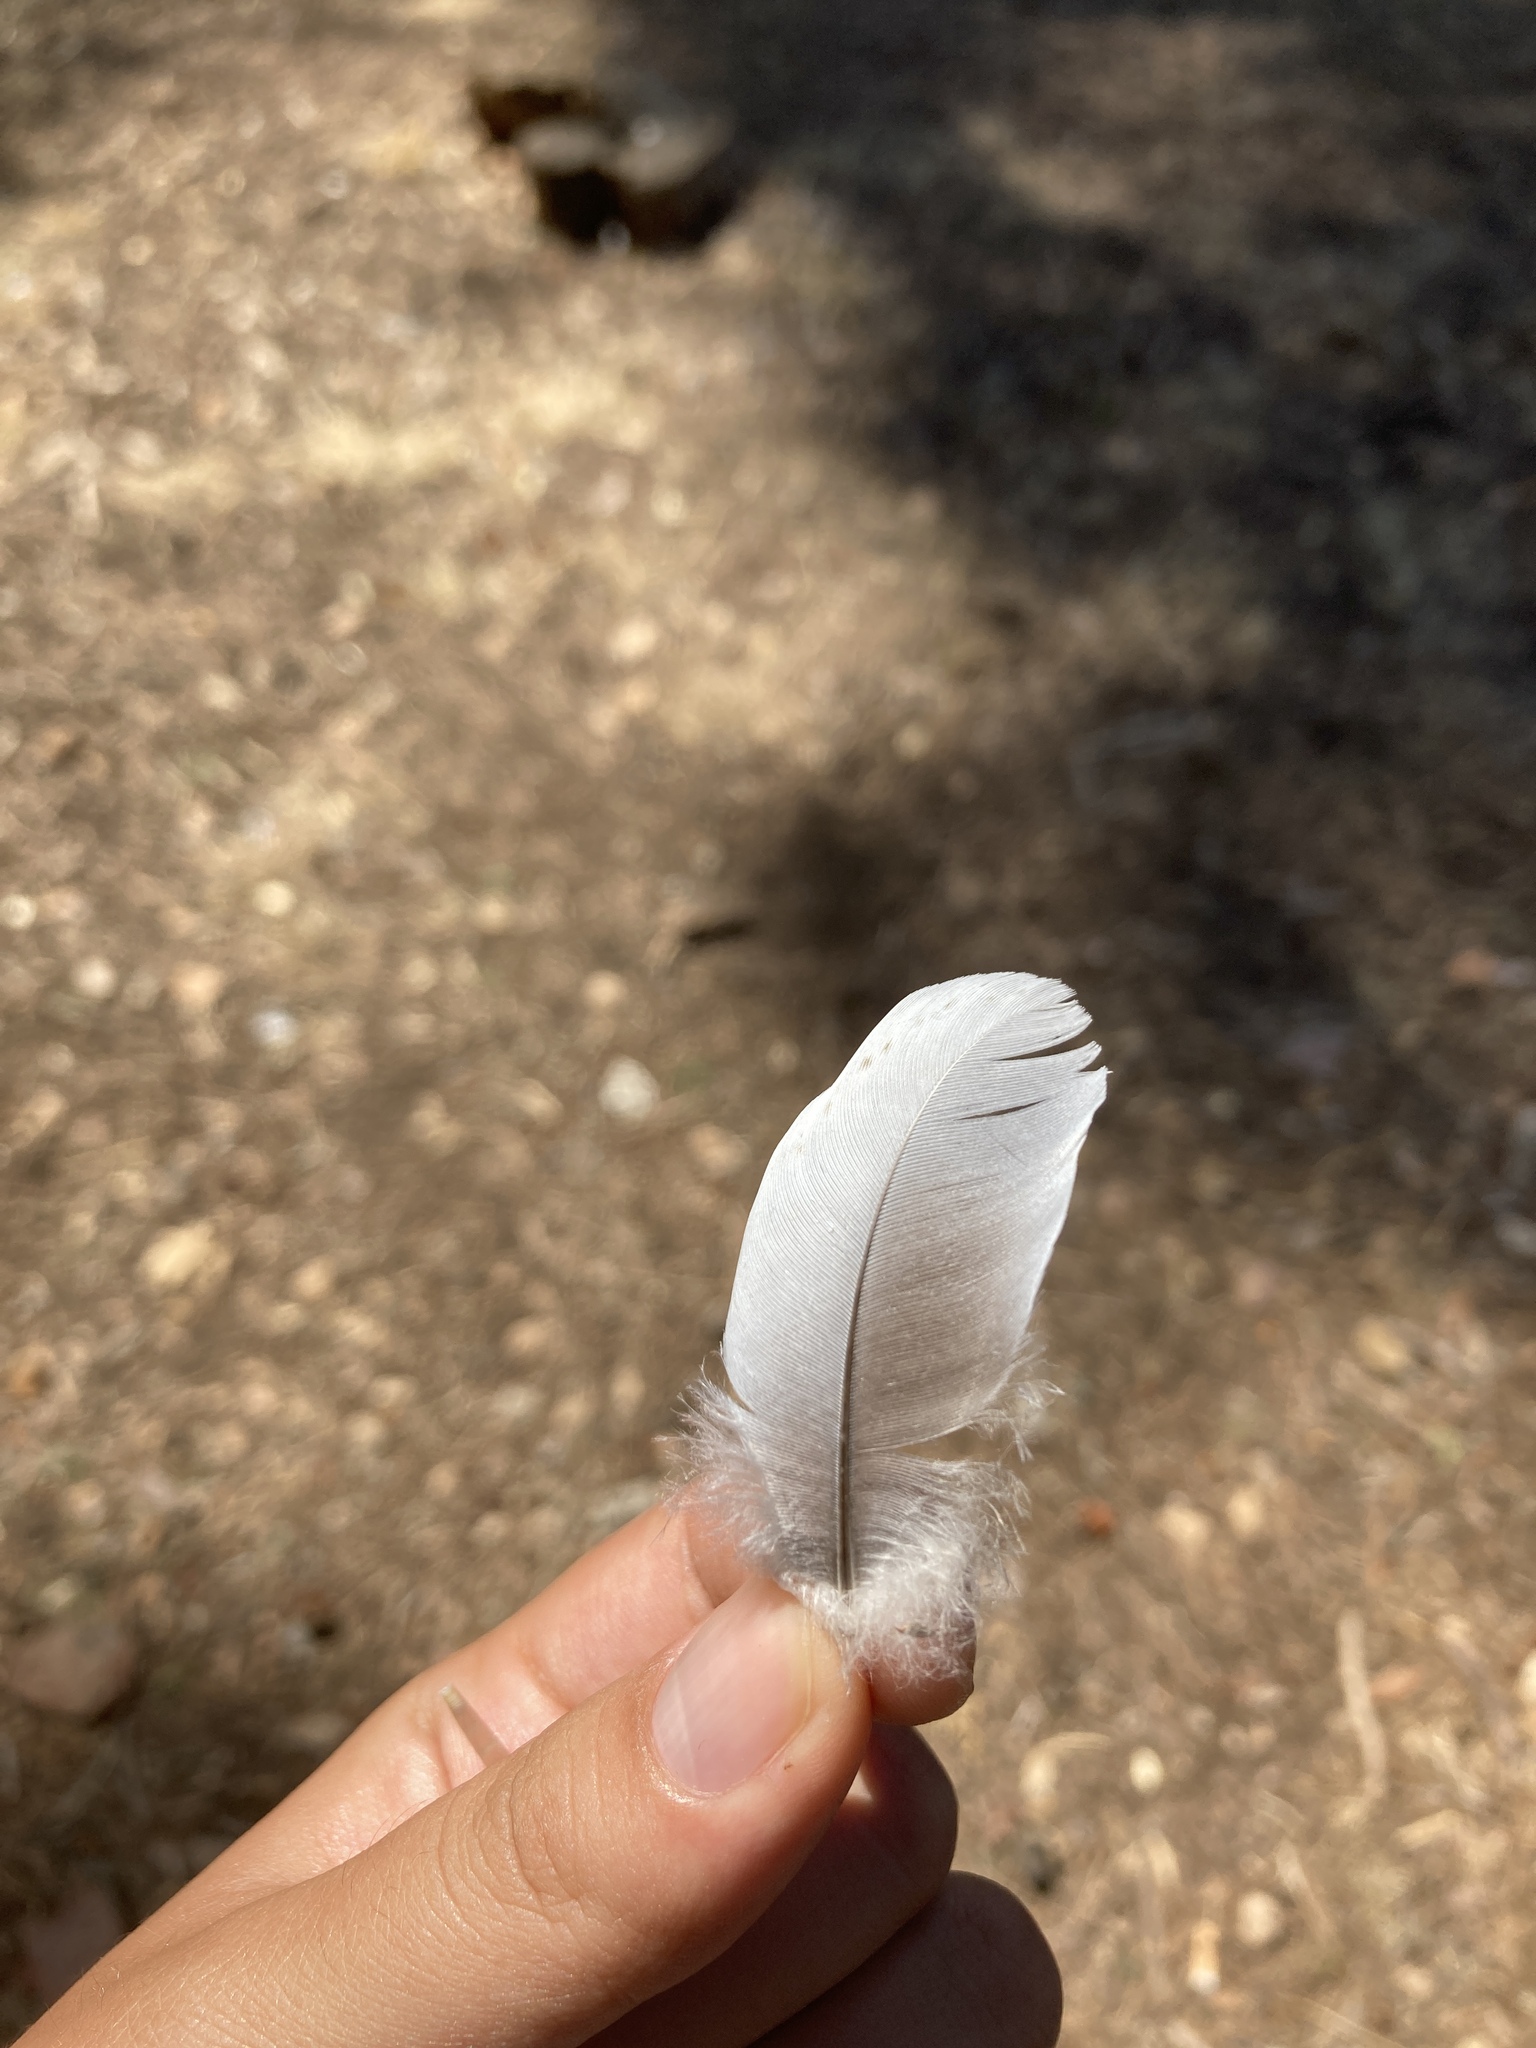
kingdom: Animalia
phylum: Chordata
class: Aves
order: Columbiformes
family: Columbidae
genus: Columba
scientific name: Columba palumbus
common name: Common wood pigeon
